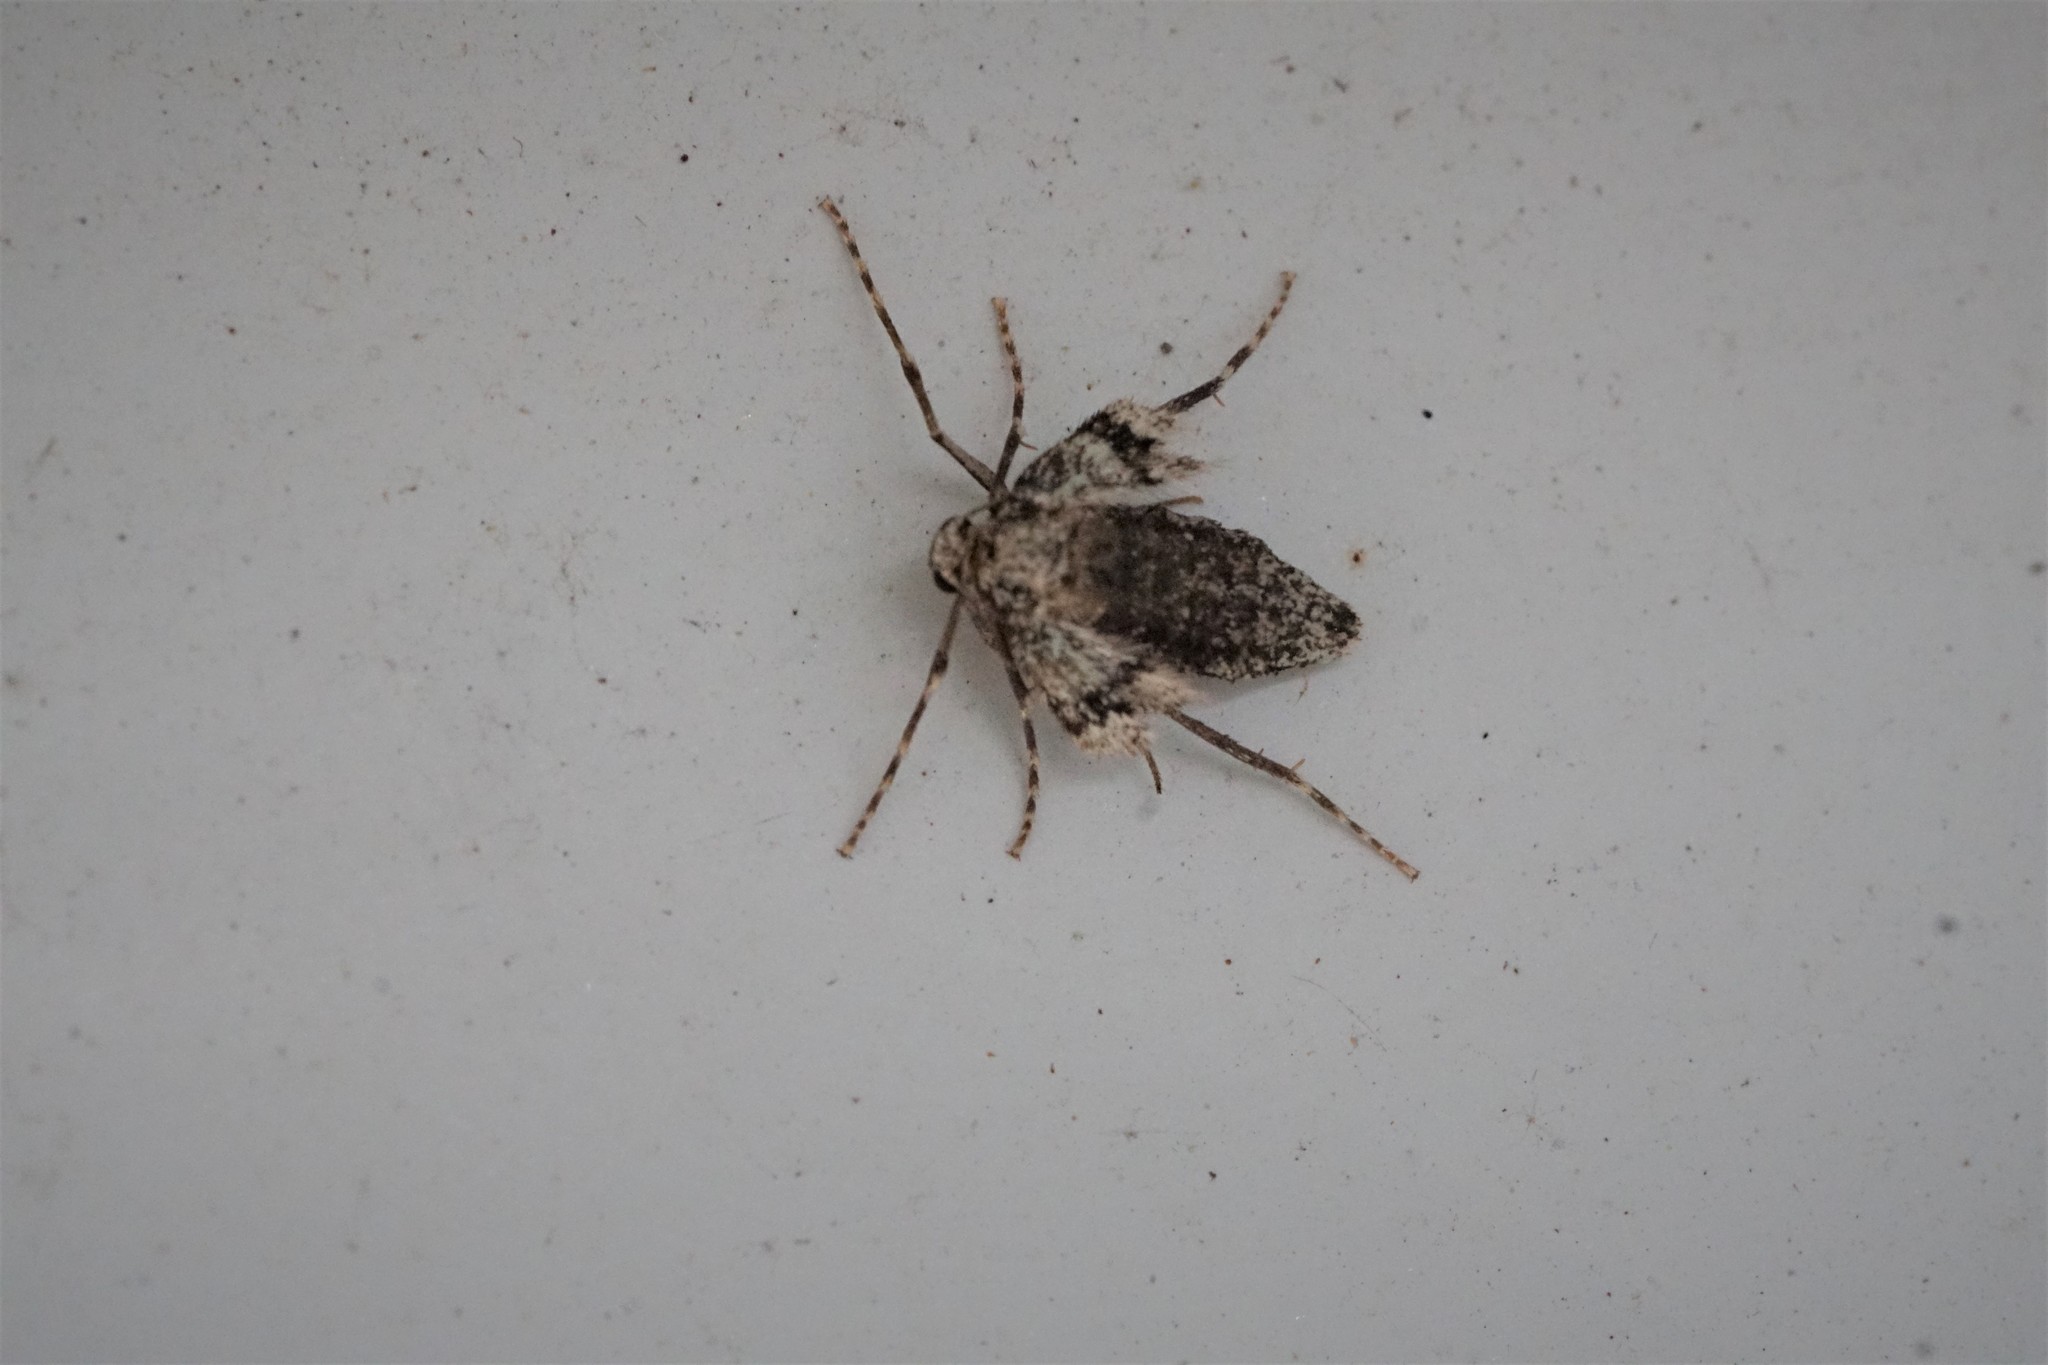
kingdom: Animalia
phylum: Arthropoda
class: Insecta
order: Lepidoptera
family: Geometridae
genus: Operophtera
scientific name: Operophtera brumata
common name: Winter moth
